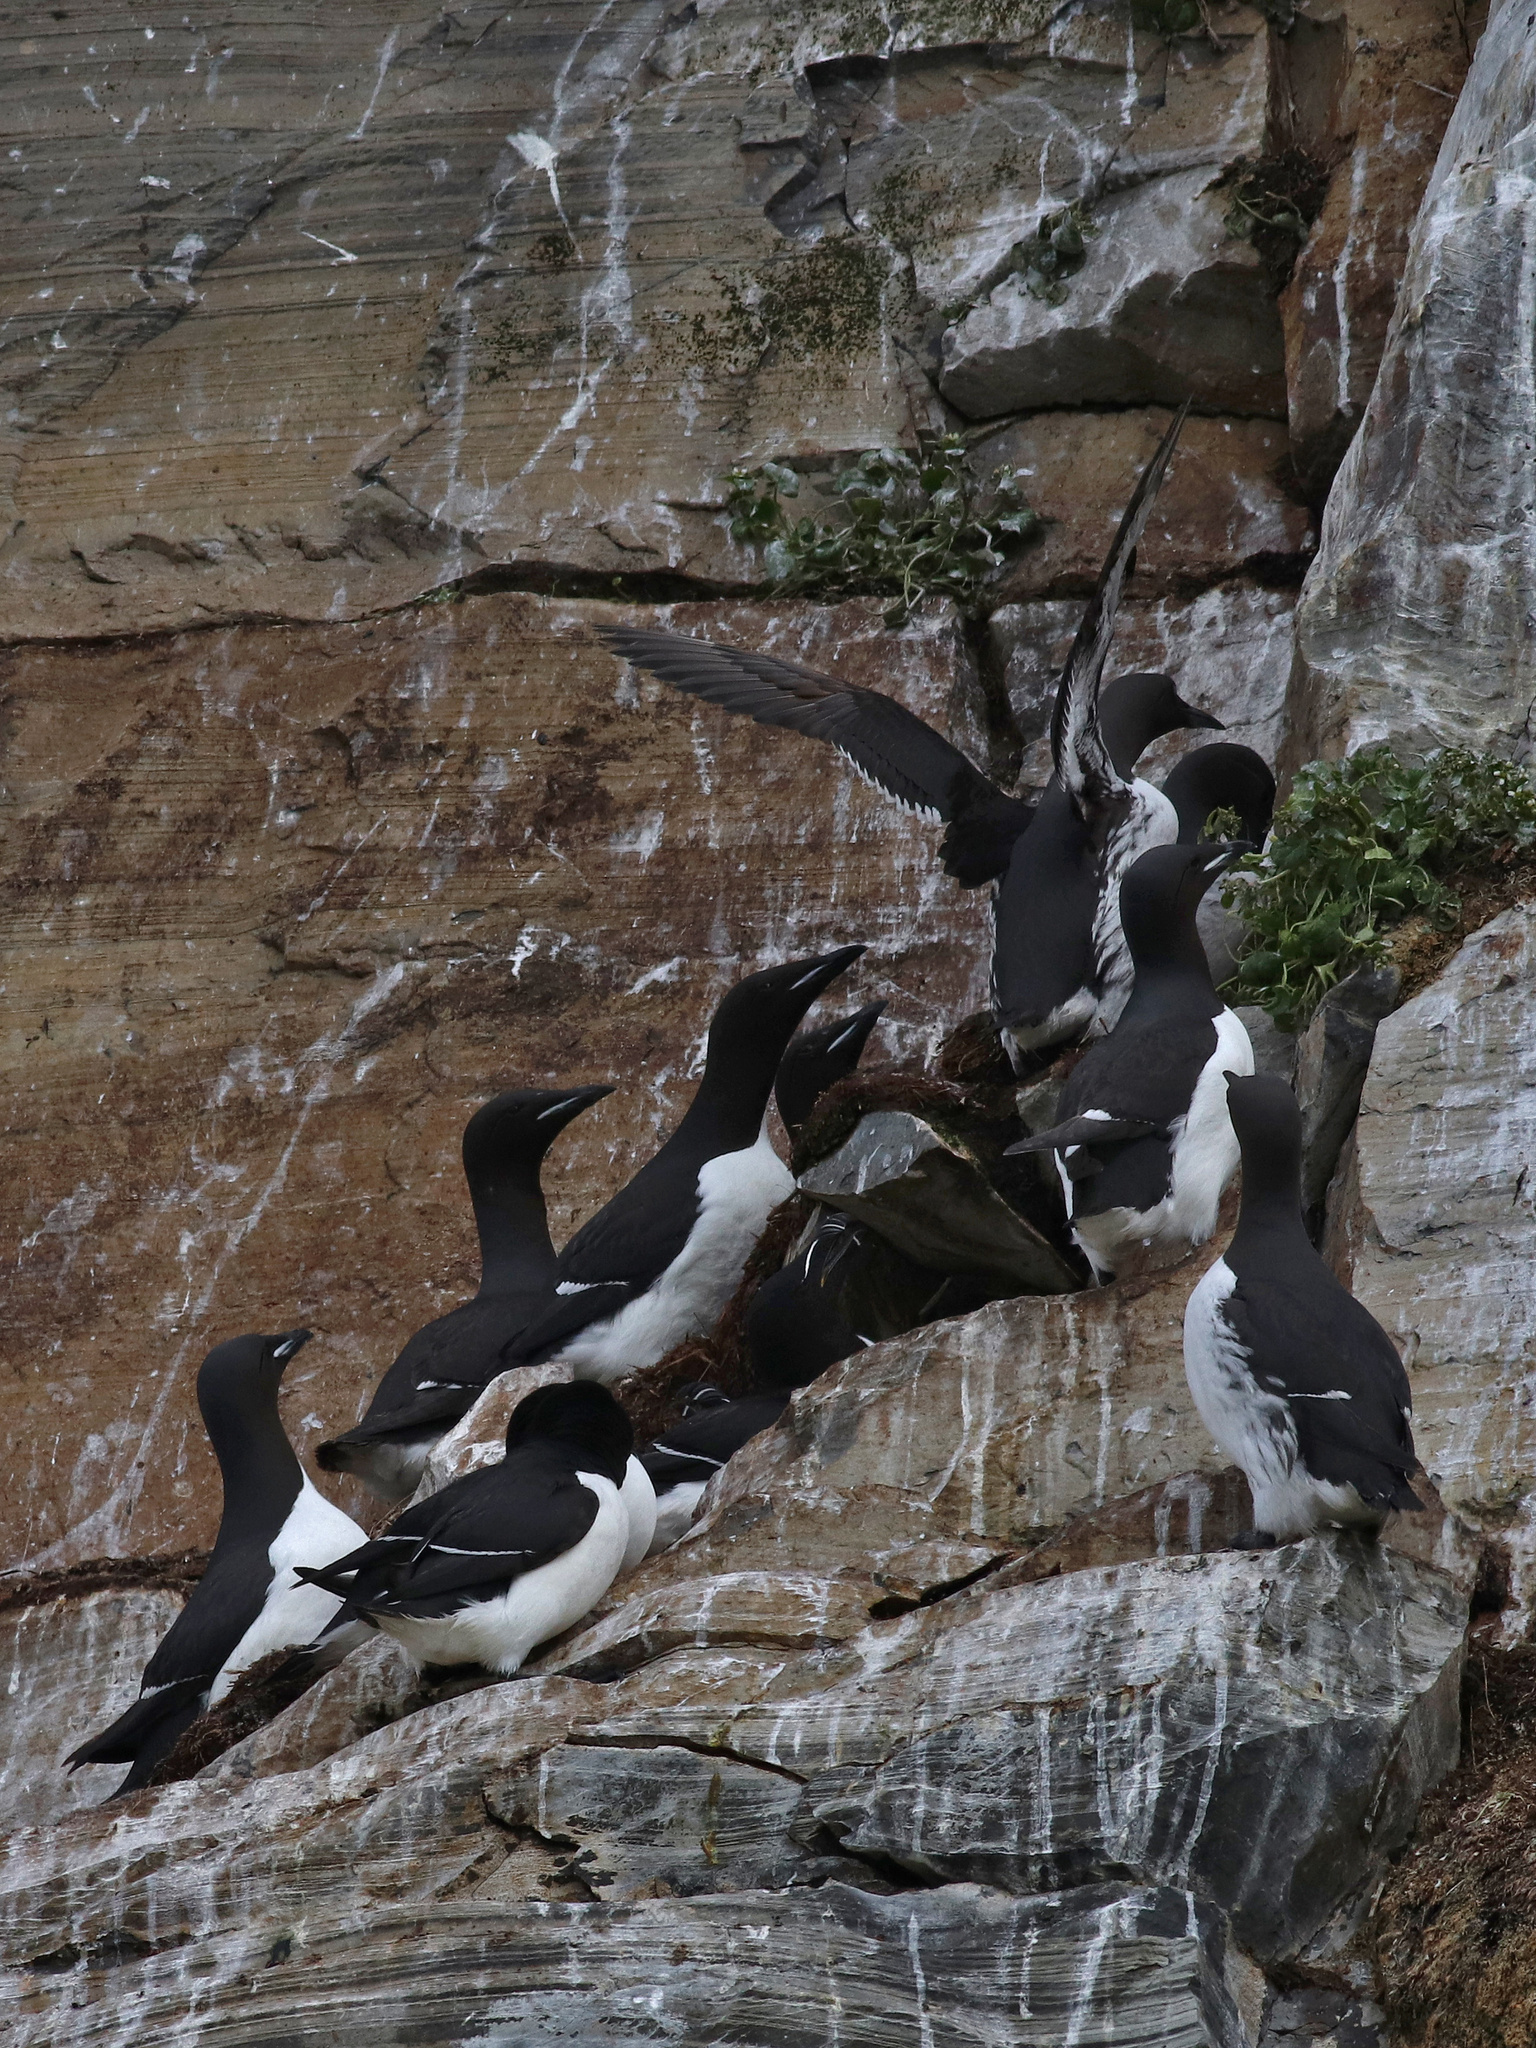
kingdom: Animalia
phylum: Chordata
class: Aves
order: Charadriiformes
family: Alcidae
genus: Uria
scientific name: Uria lomvia
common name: Thick-billed murre
